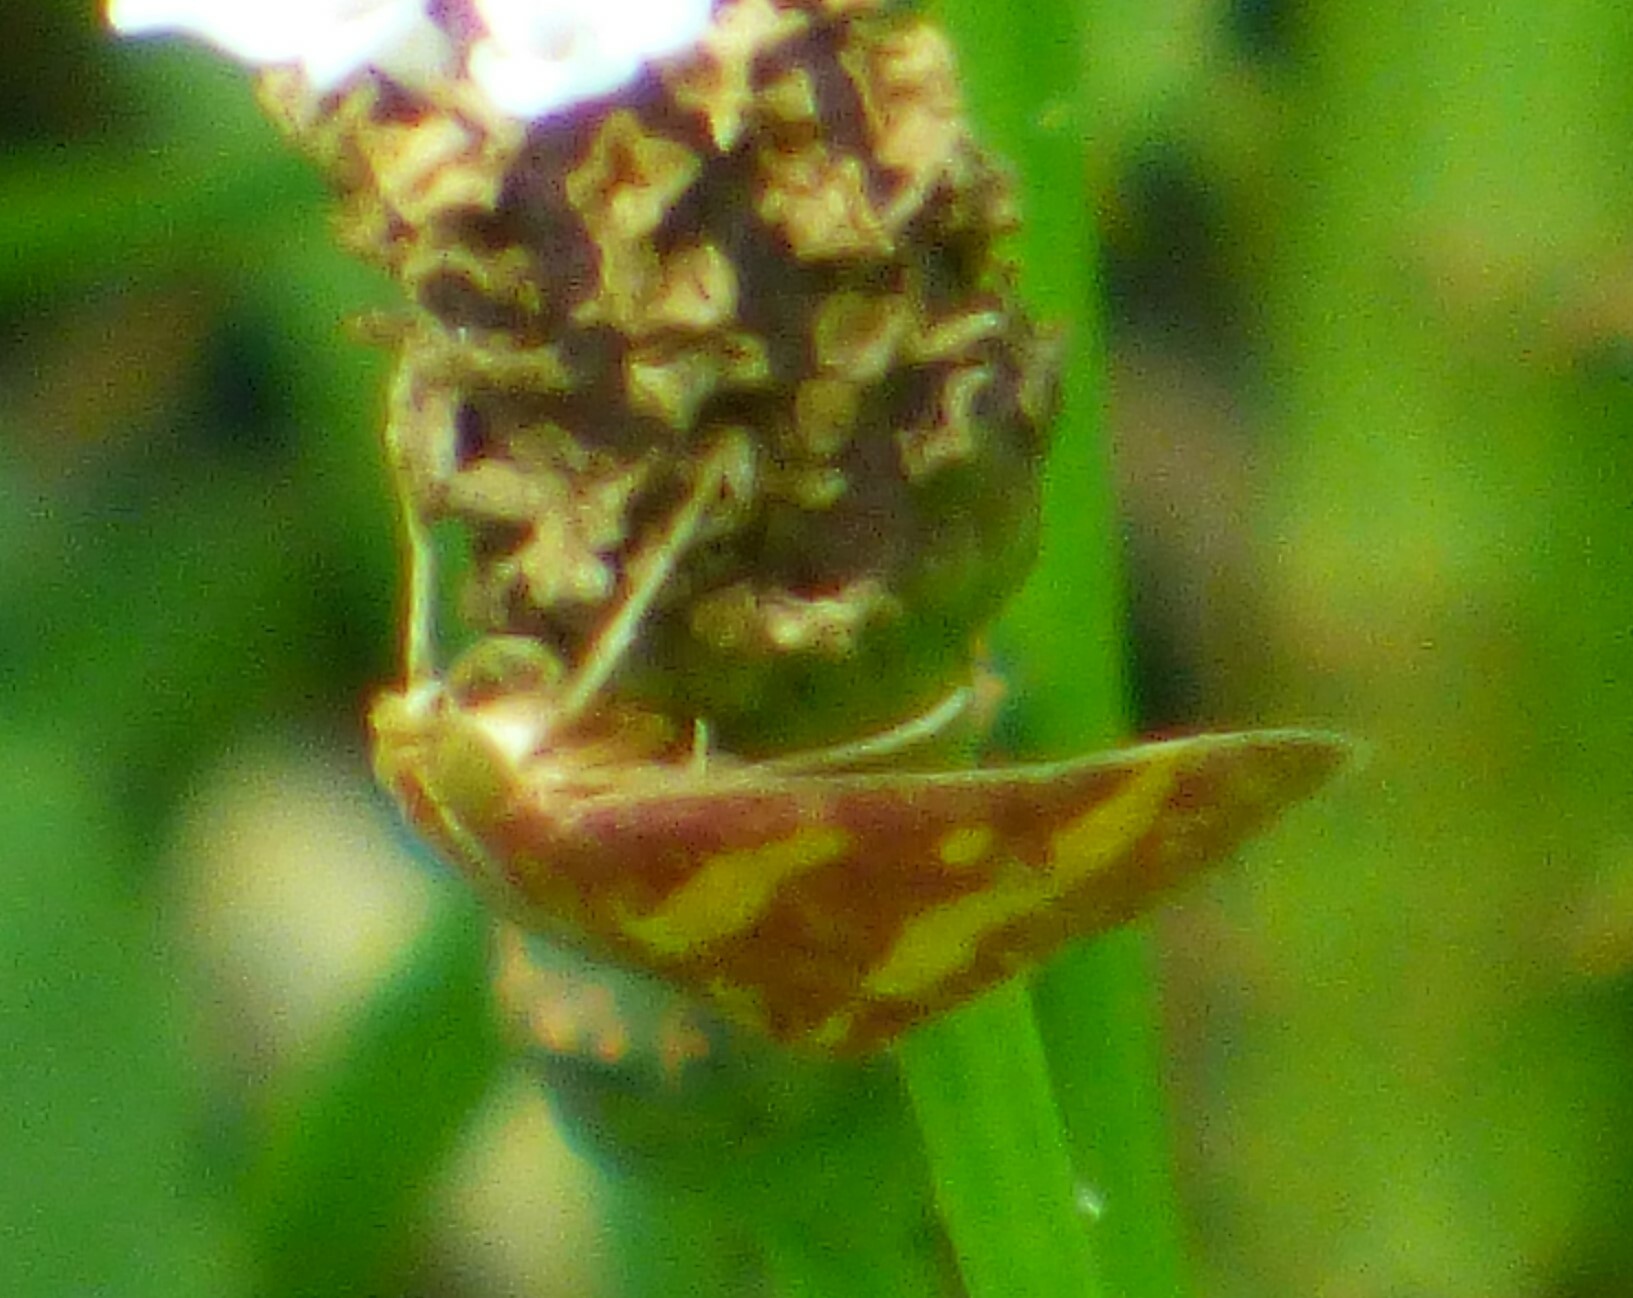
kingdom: Animalia
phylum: Arthropoda
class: Insecta
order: Lepidoptera
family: Crambidae
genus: Pyrausta
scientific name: Pyrausta tyralis
